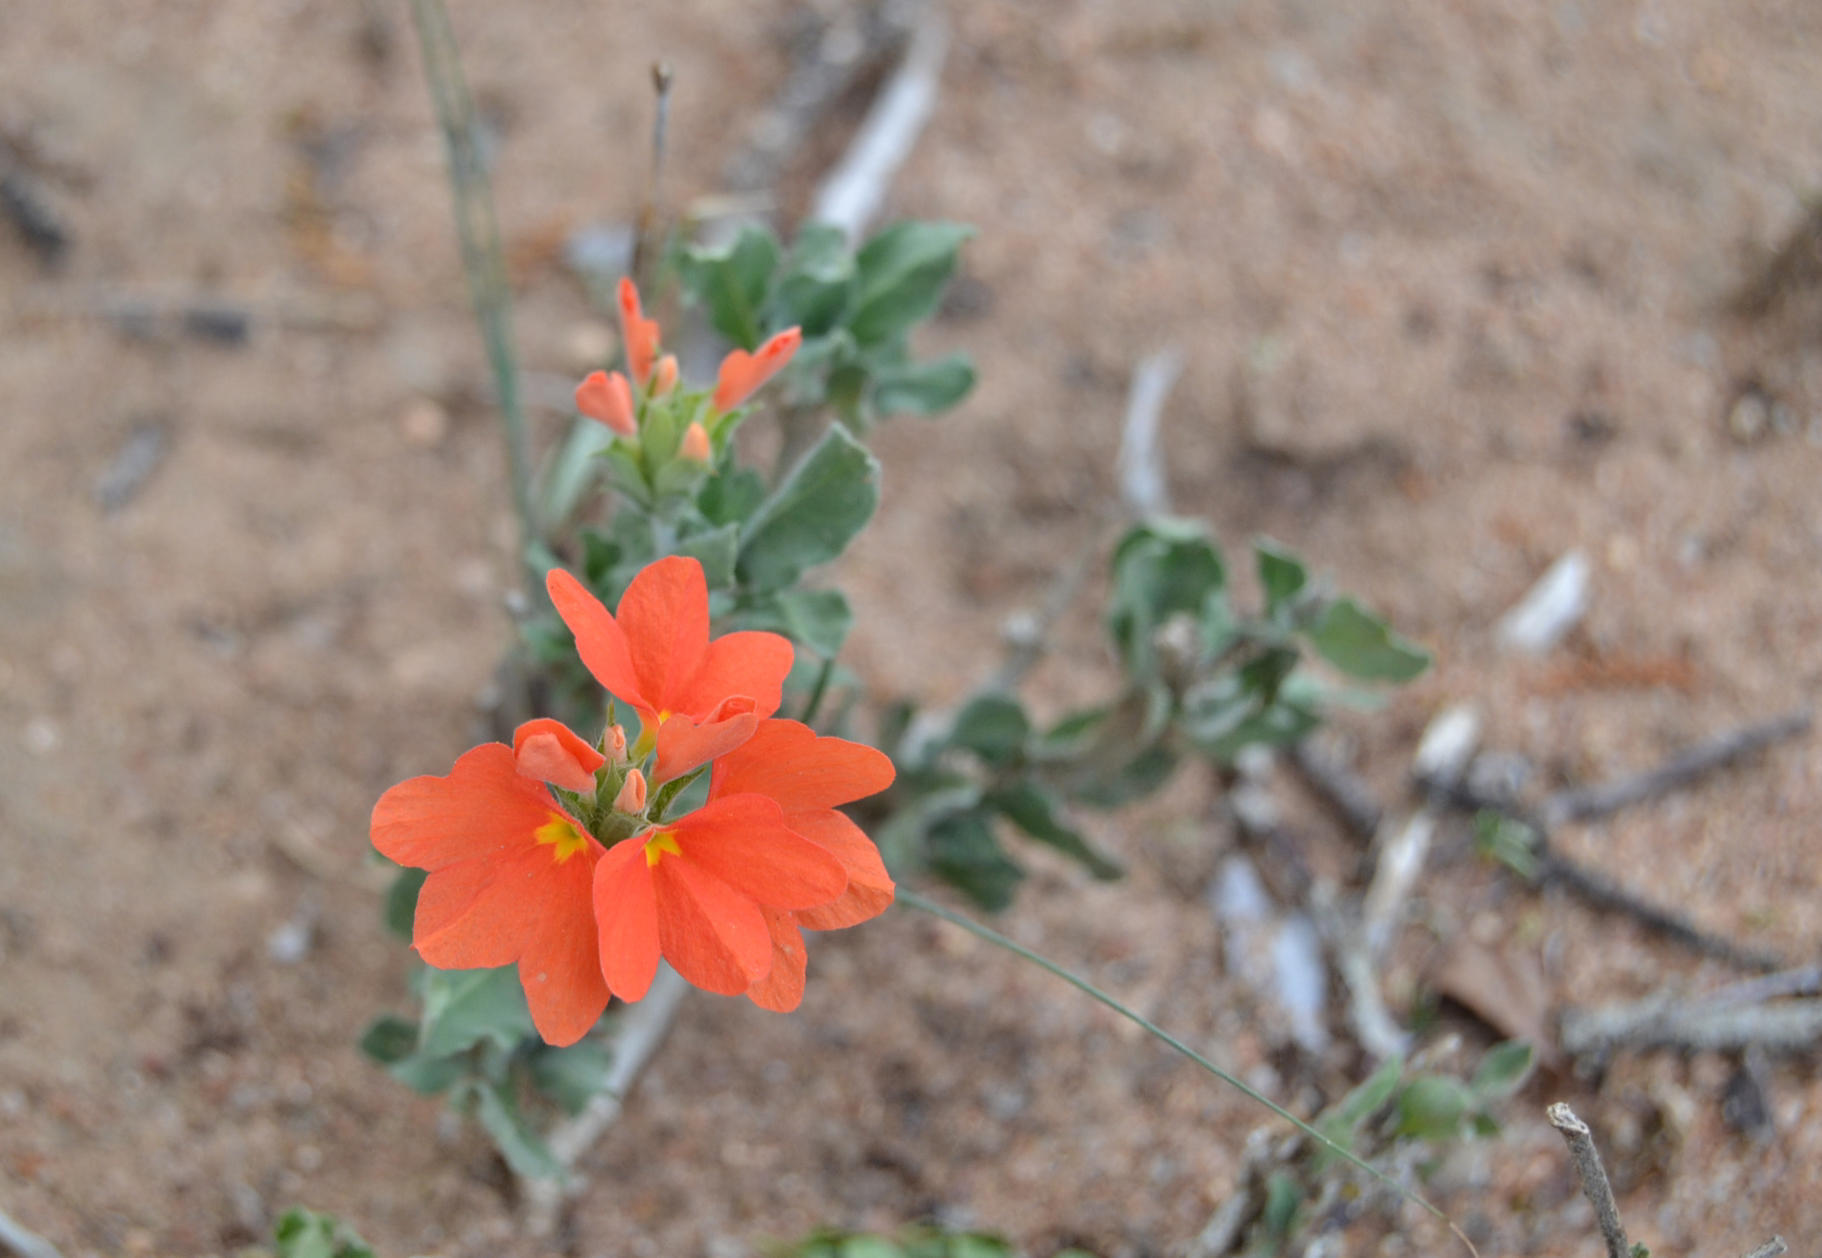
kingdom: Plantae
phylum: Tracheophyta
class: Magnoliopsida
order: Lamiales
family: Acanthaceae
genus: Crossandra
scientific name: Crossandra mucronata
